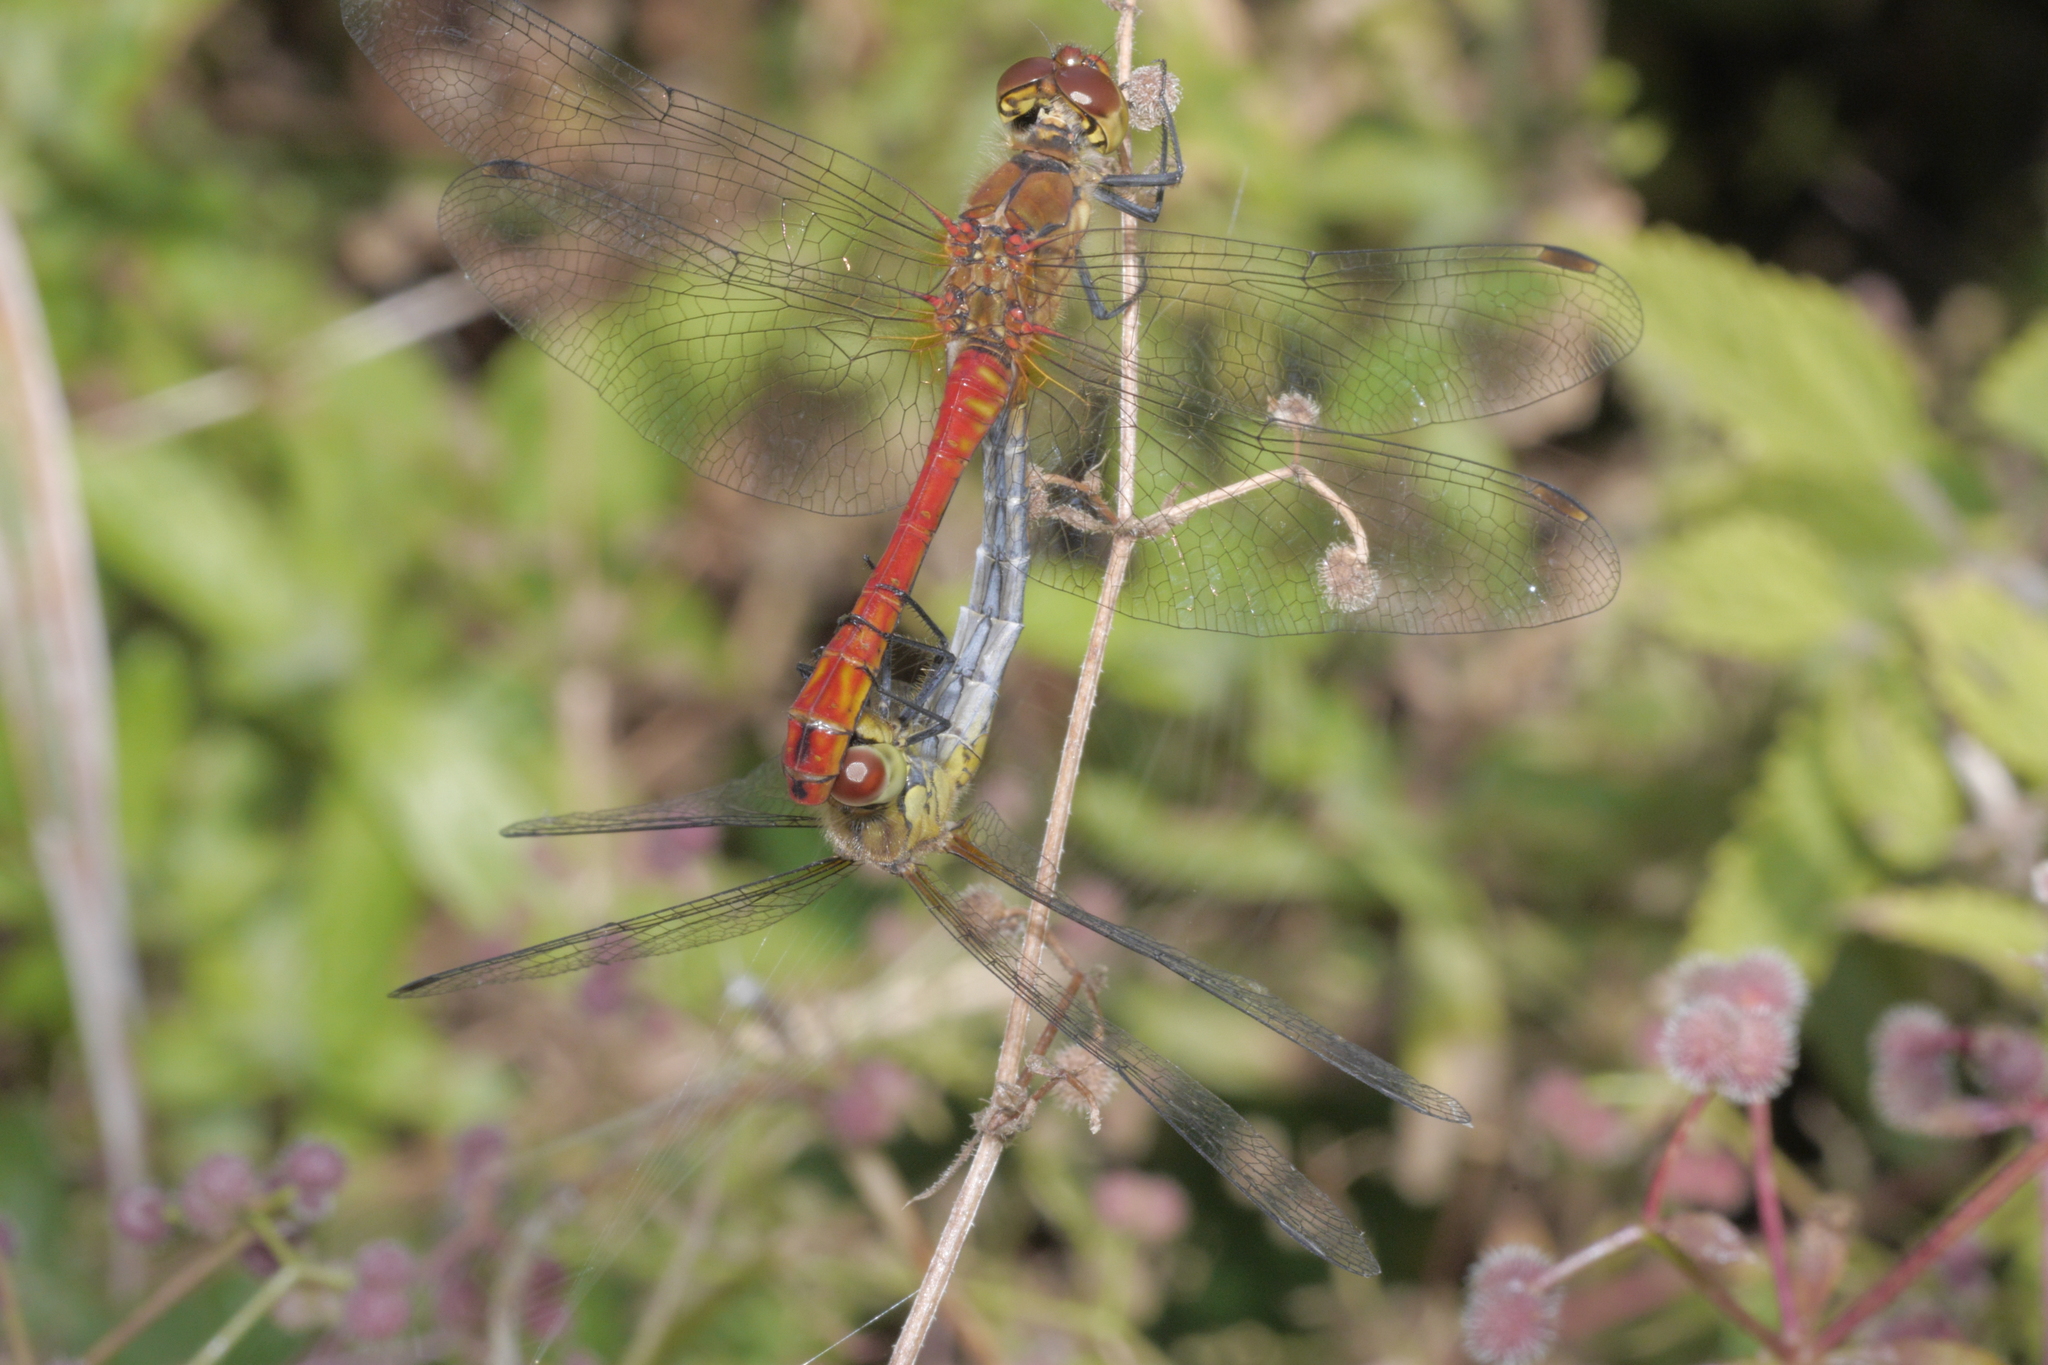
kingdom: Animalia
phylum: Arthropoda
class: Insecta
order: Odonata
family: Libellulidae
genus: Sympetrum
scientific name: Sympetrum sanguineum
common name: Ruddy darter
